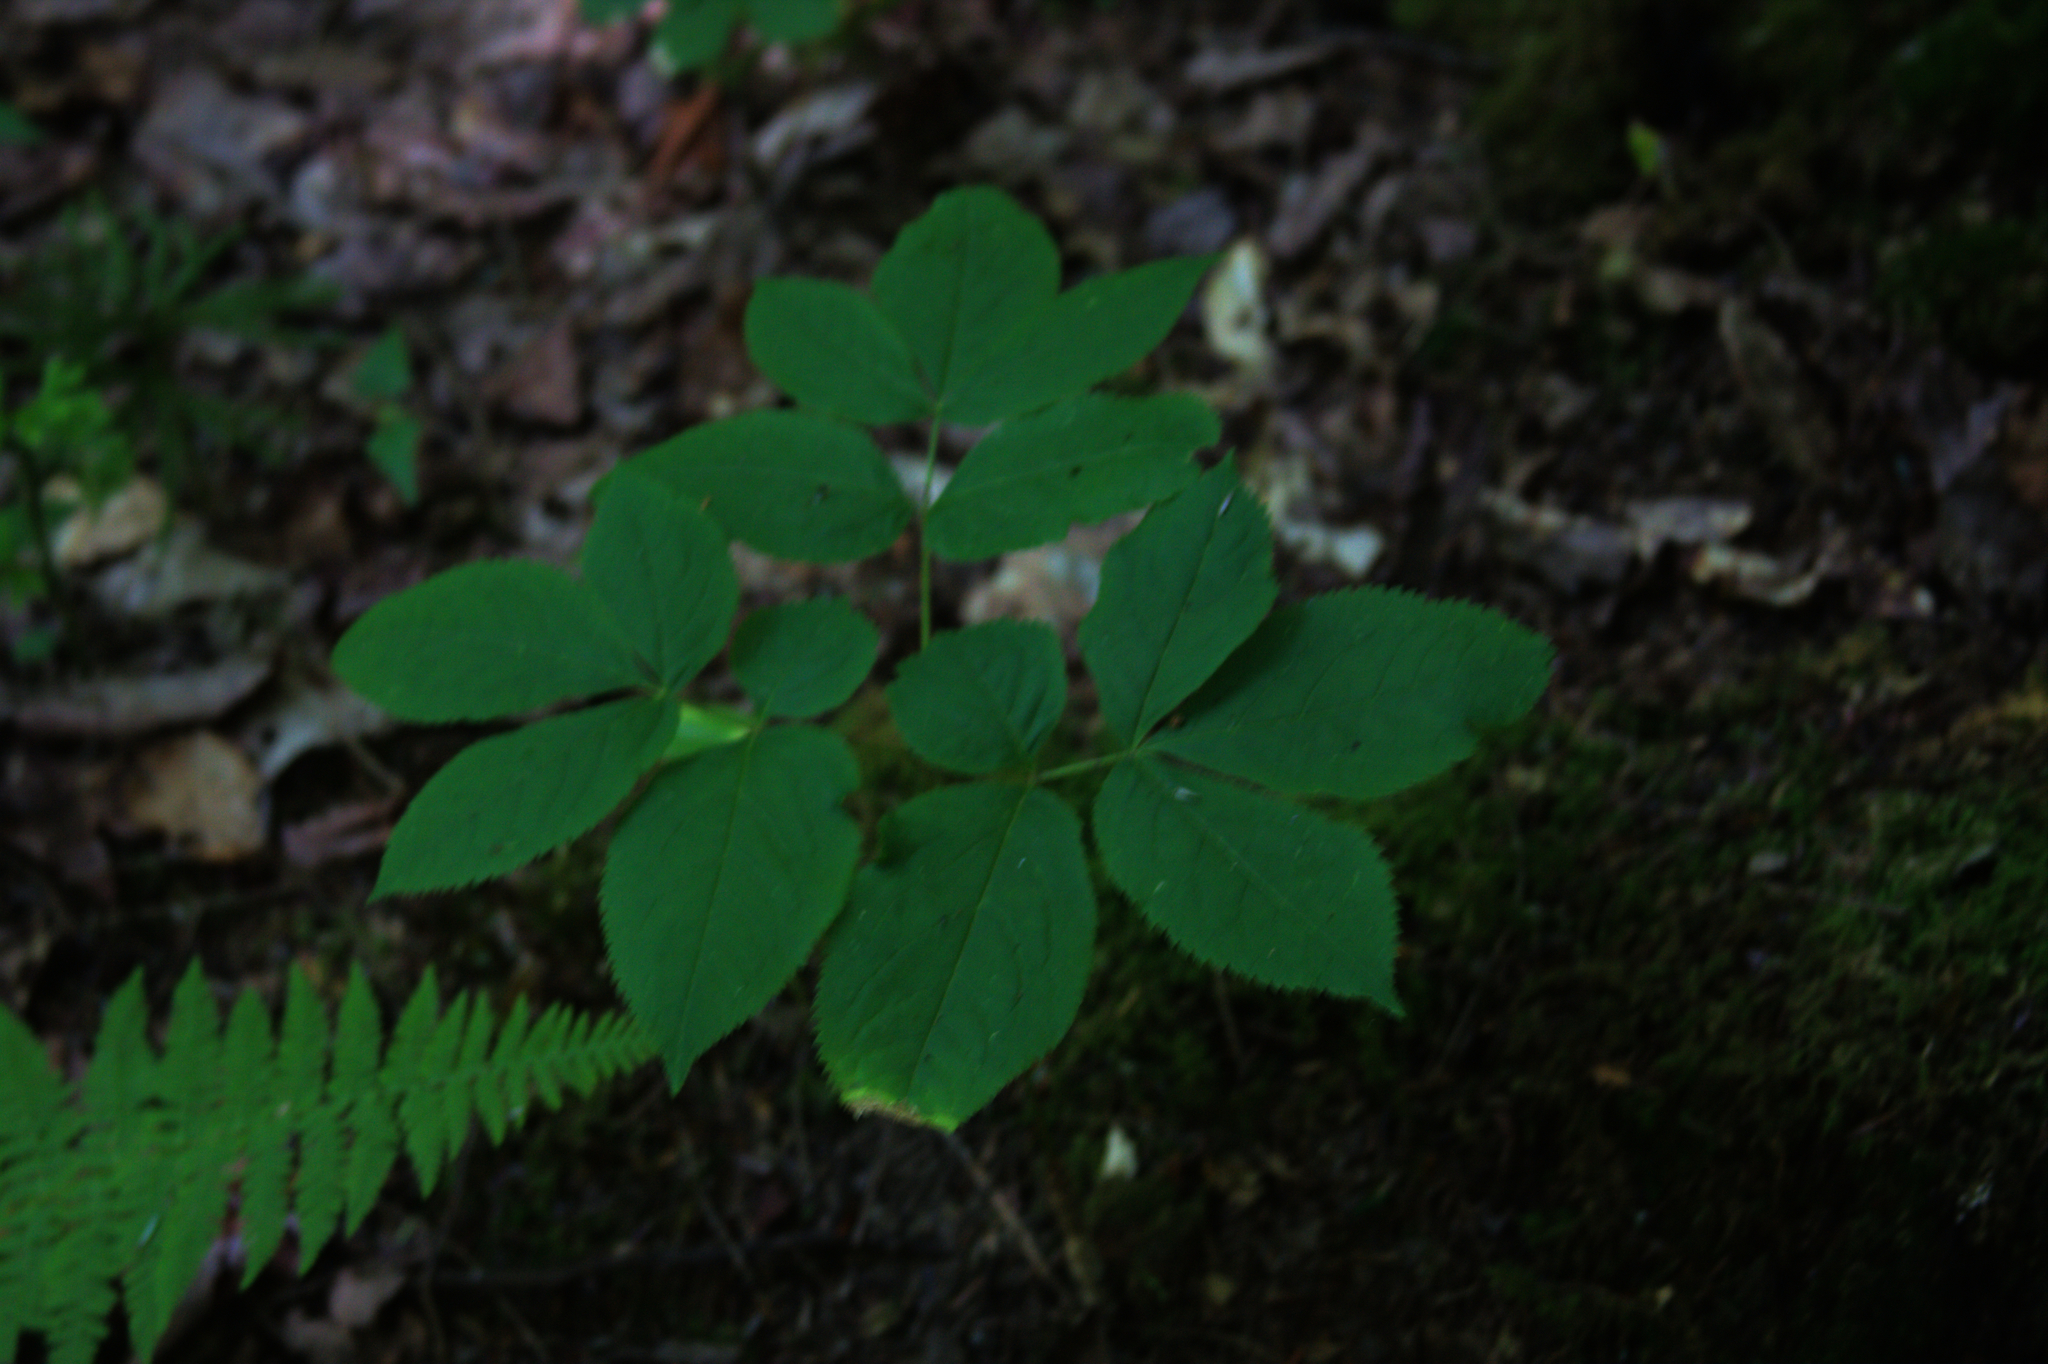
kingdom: Plantae
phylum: Tracheophyta
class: Magnoliopsida
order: Apiales
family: Araliaceae
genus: Aralia
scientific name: Aralia nudicaulis
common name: Wild sarsaparilla
